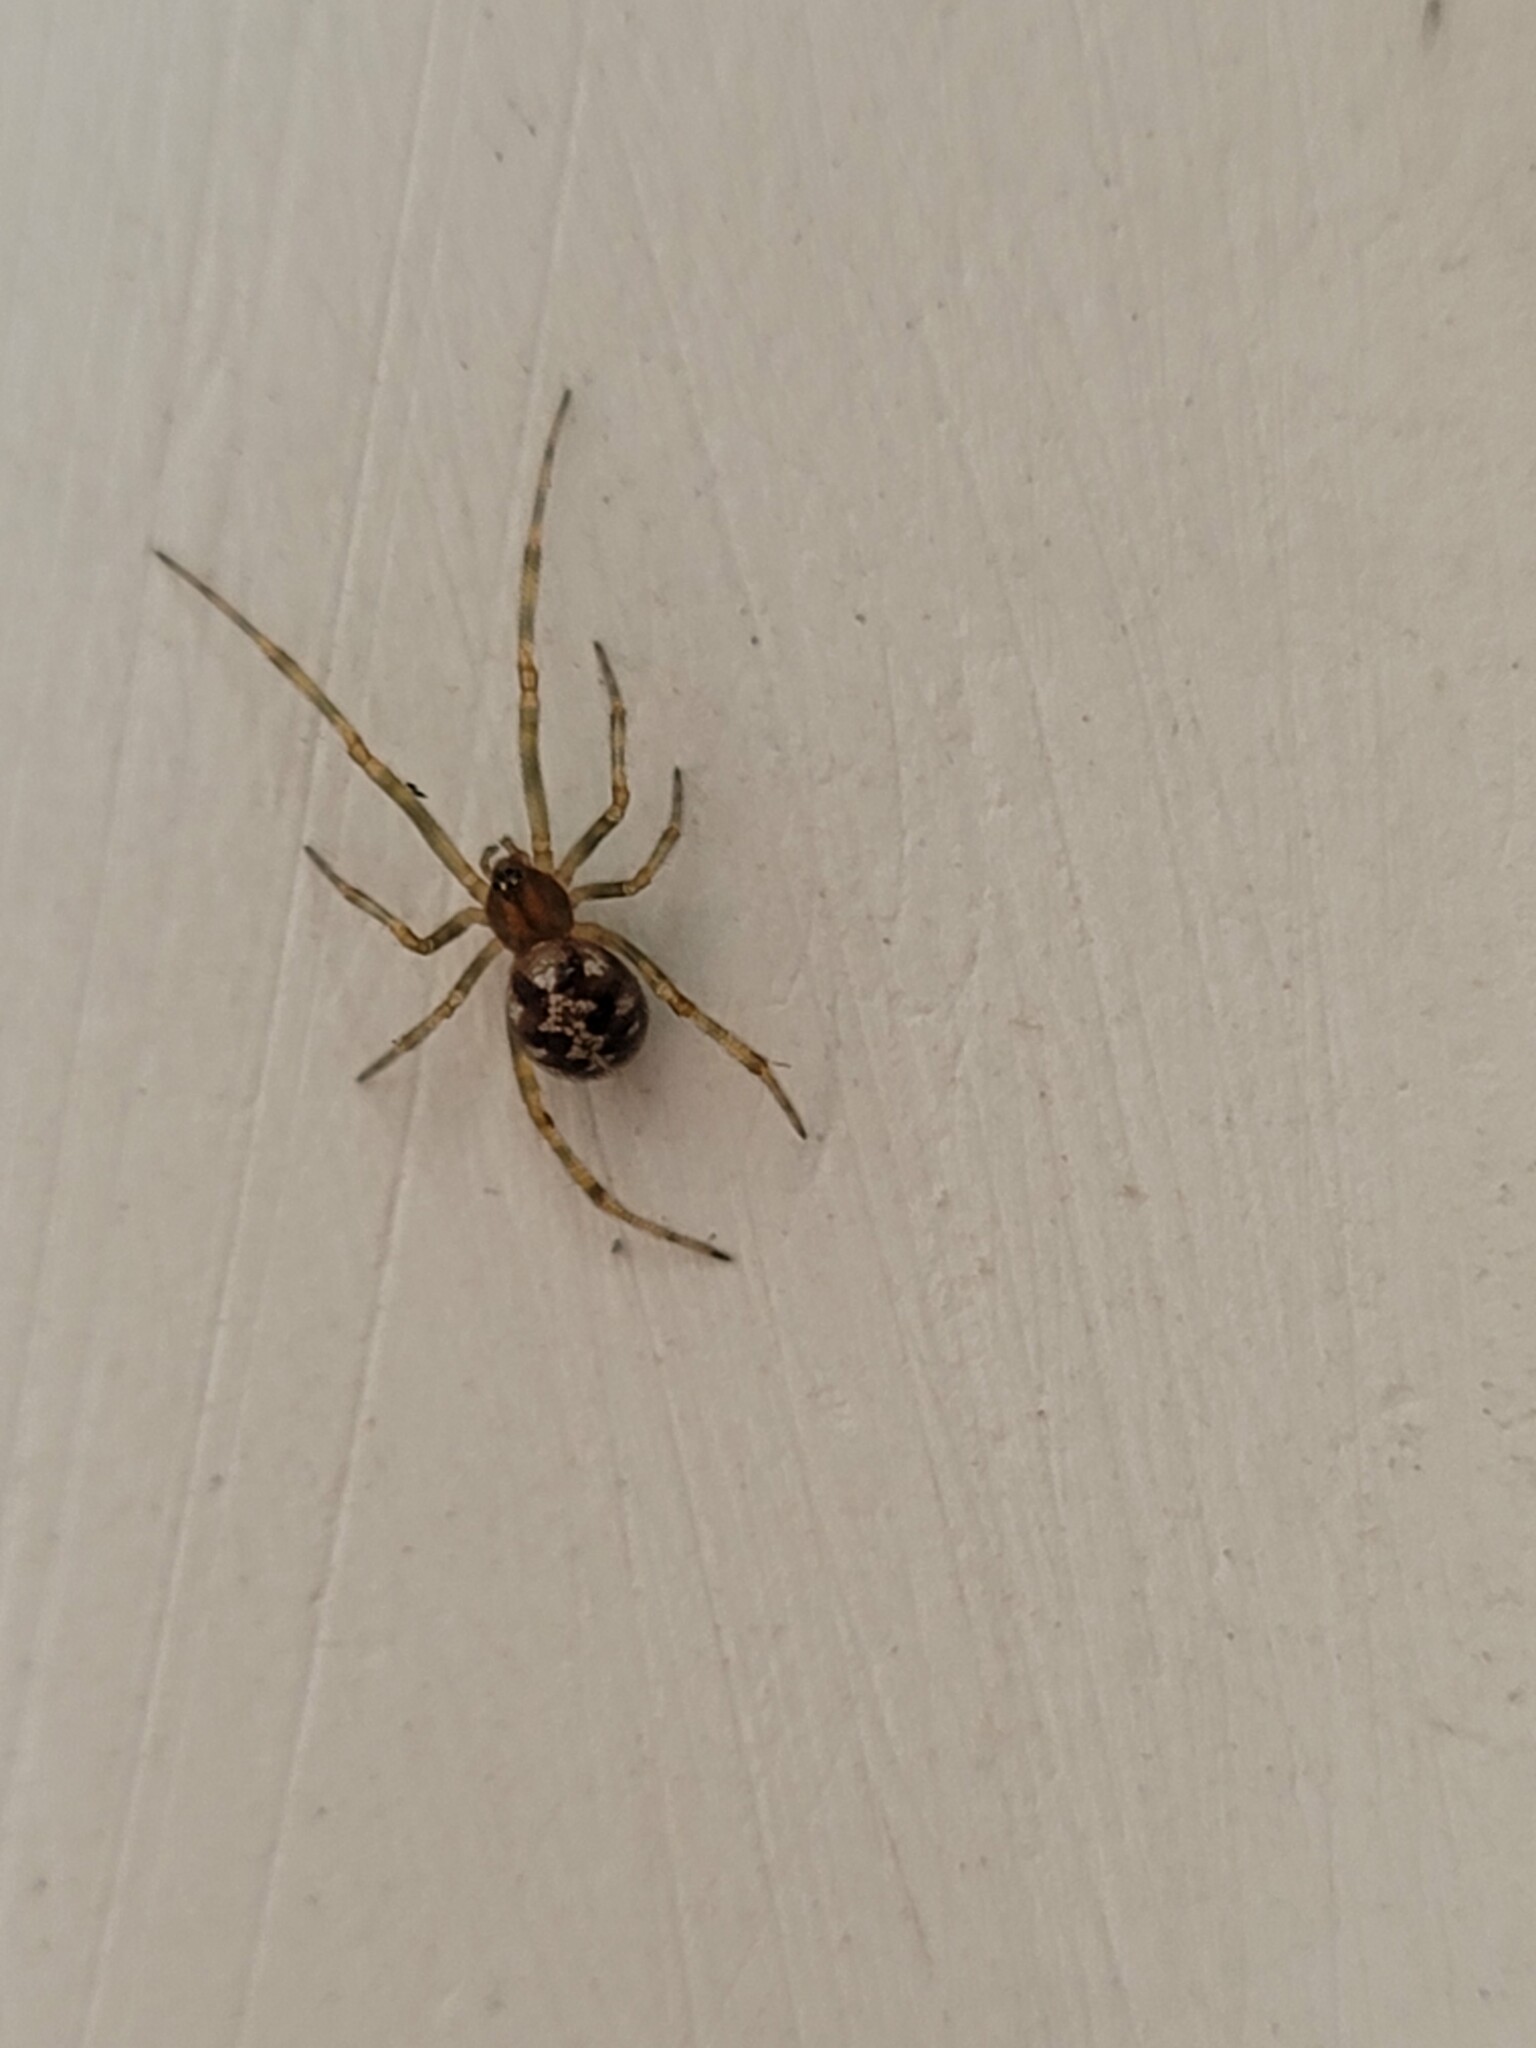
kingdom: Animalia
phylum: Arthropoda
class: Arachnida
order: Araneae
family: Theridiidae
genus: Steatoda
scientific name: Steatoda triangulosa
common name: Triangulate bud spider
